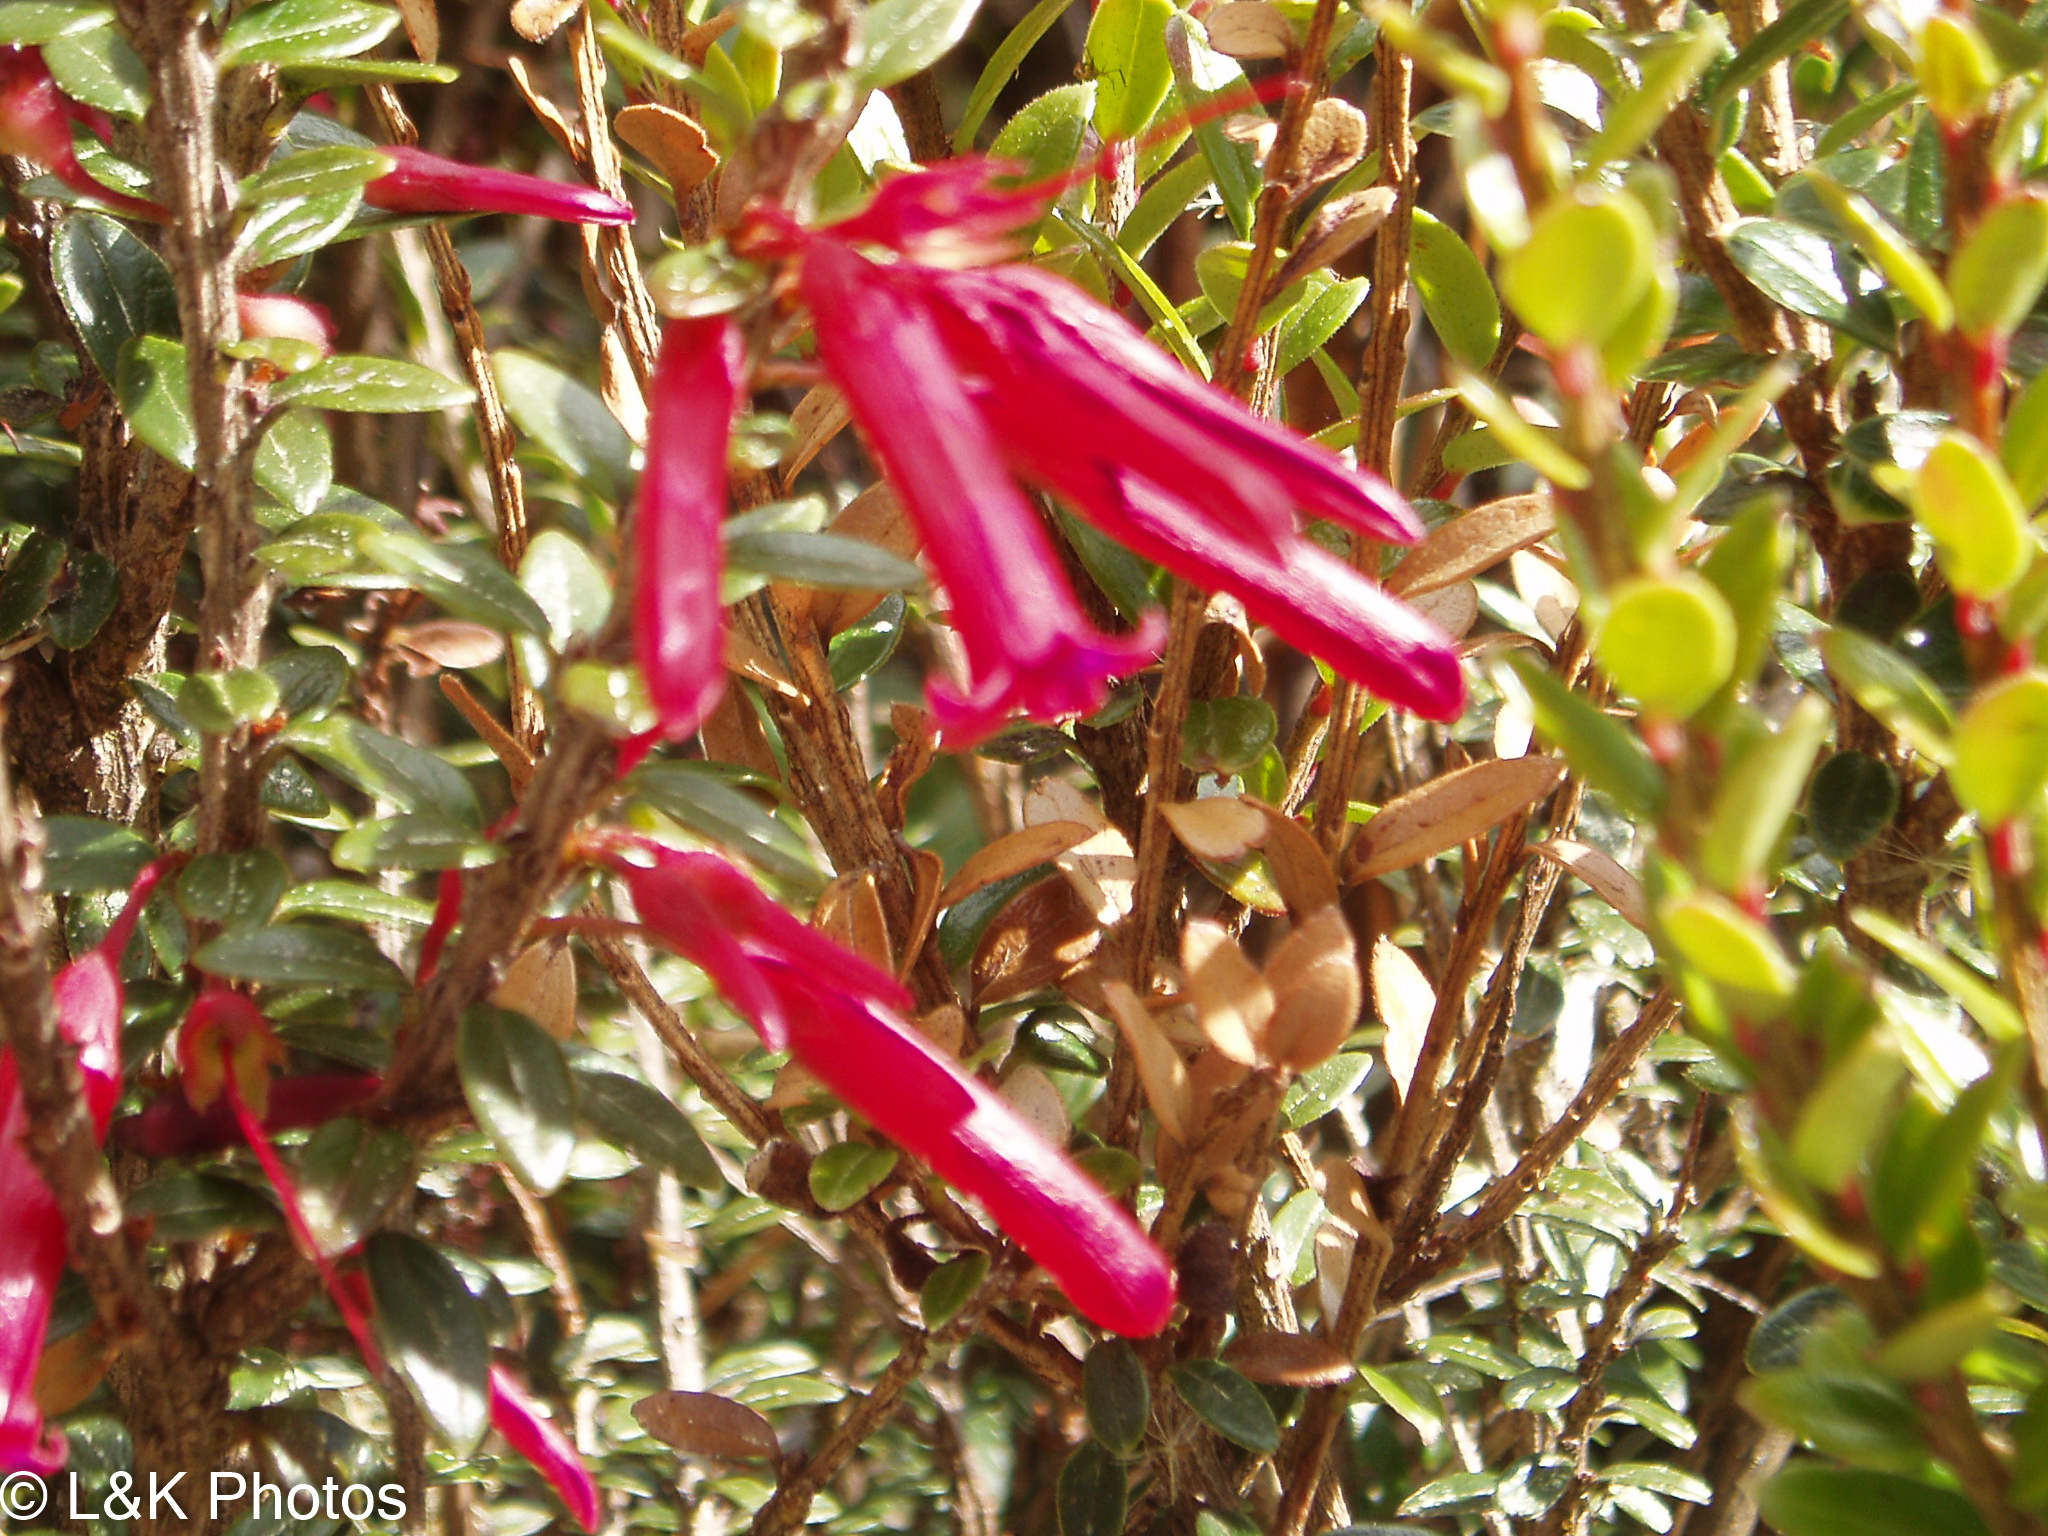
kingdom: Plantae
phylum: Tracheophyta
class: Magnoliopsida
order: Ericales
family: Ericaceae
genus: Demosthenesia
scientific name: Demosthenesia mandonii
